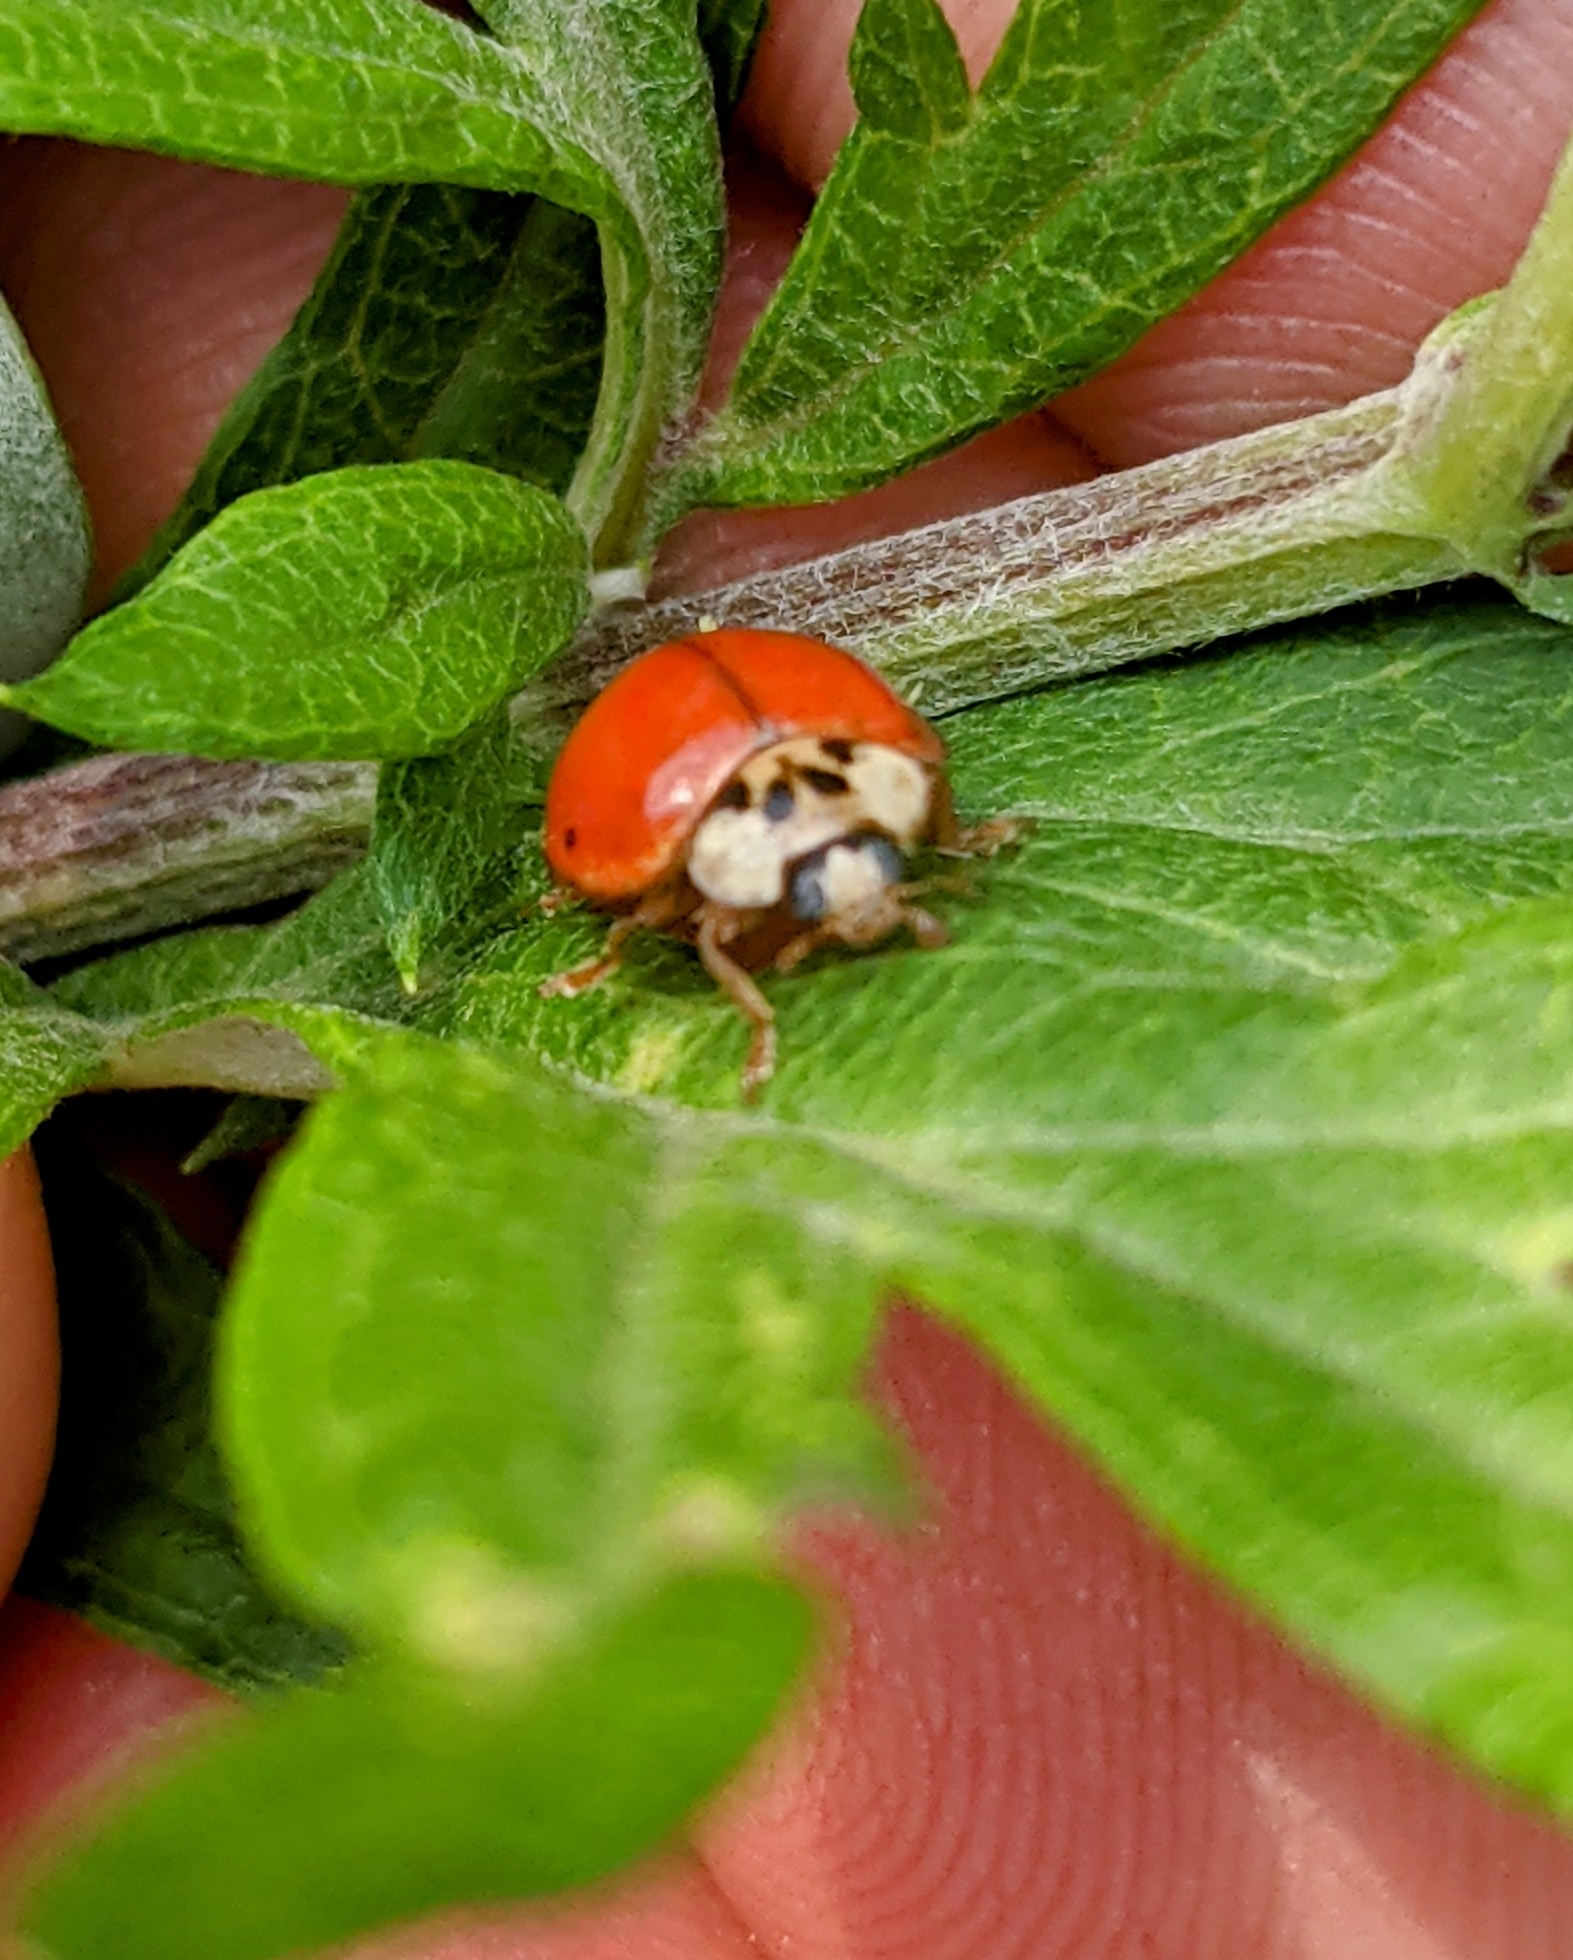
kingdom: Animalia
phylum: Arthropoda
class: Insecta
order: Coleoptera
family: Coccinellidae
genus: Harmonia
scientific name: Harmonia axyridis
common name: Harlequin ladybird
